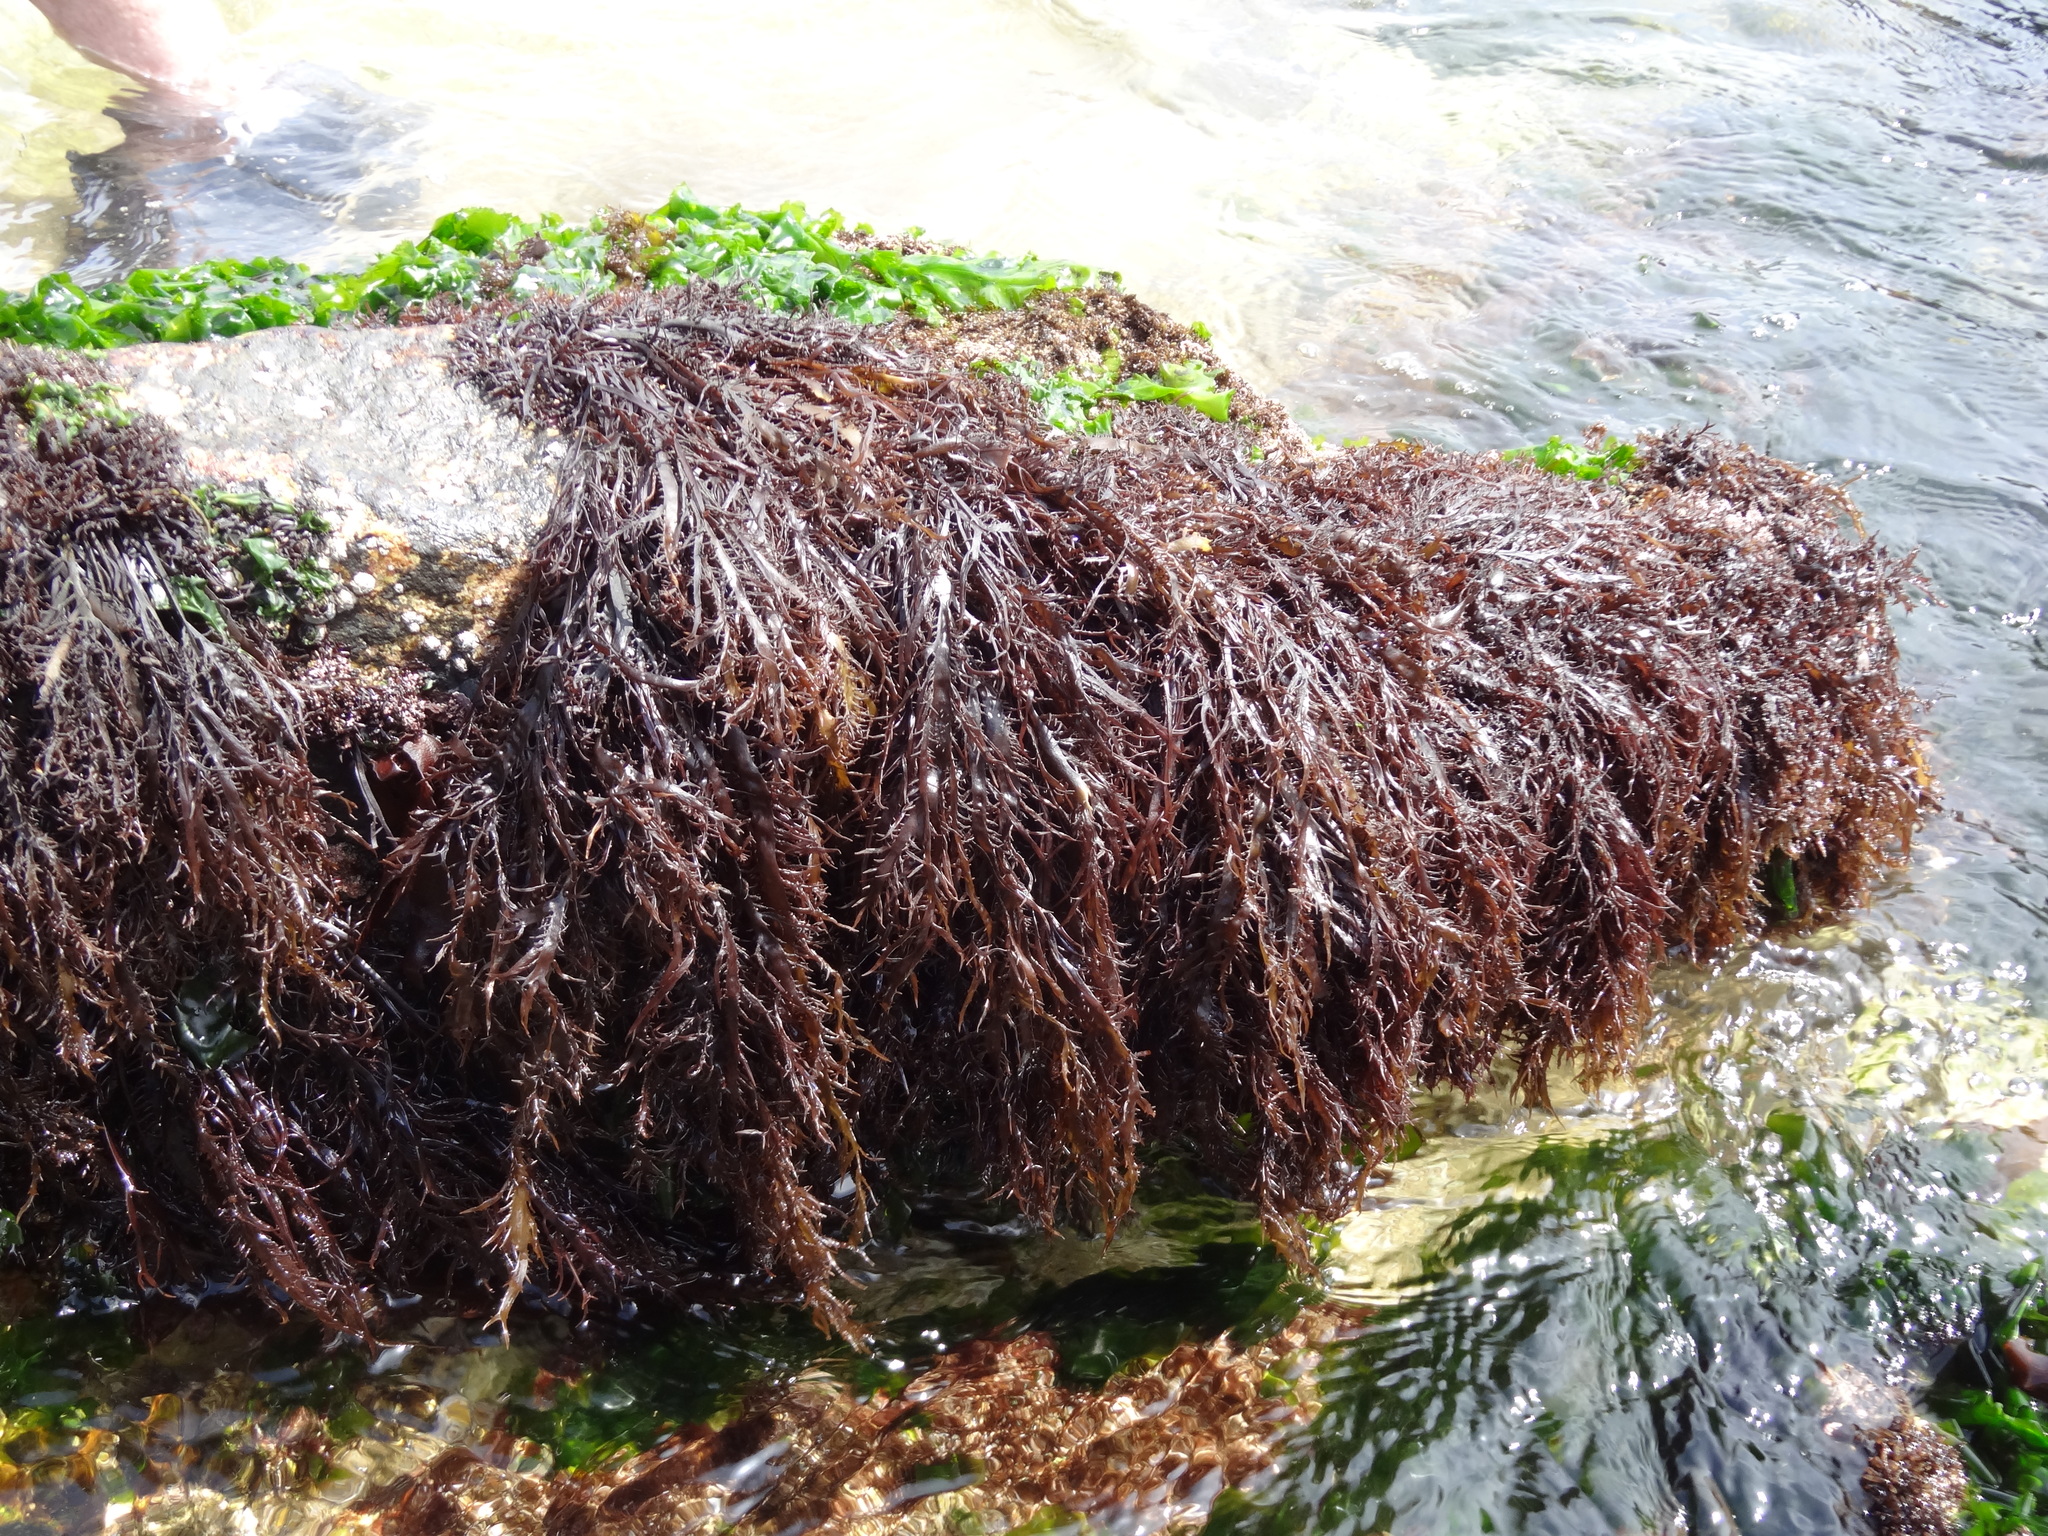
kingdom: Plantae
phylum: Rhodophyta
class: Florideophyceae
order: Gigartinales
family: Gigartinaceae
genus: Chondracanthus
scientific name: Chondracanthus chamissoi
